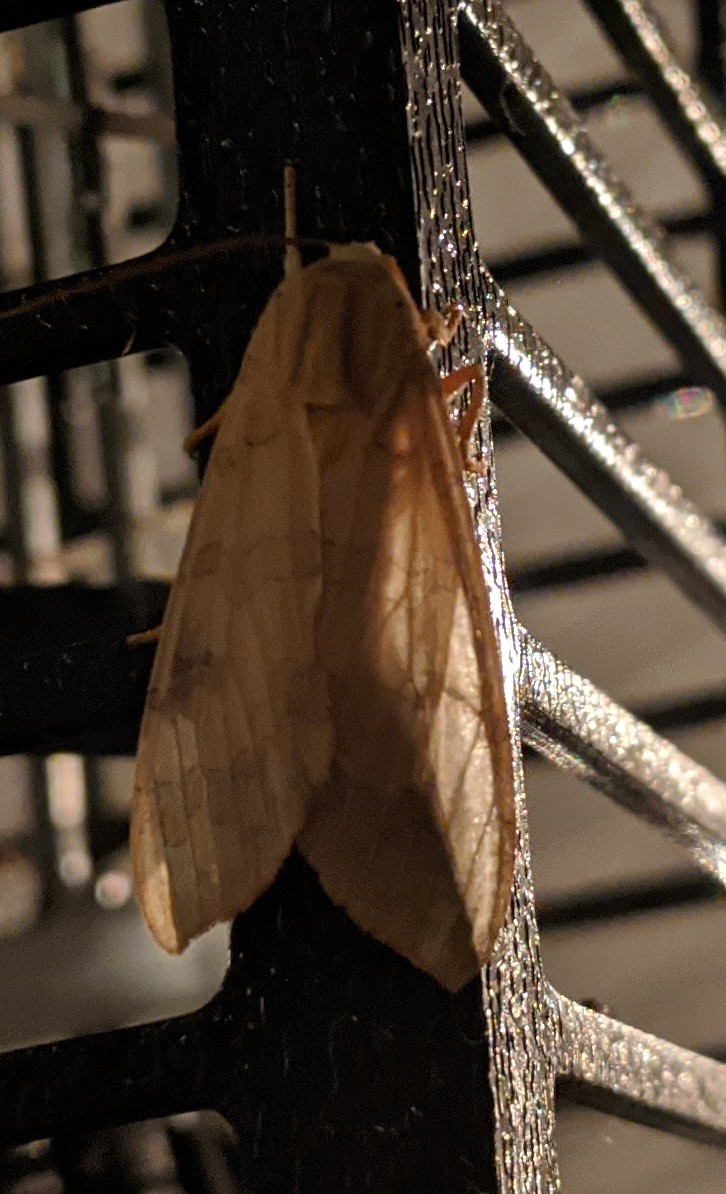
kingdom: Animalia
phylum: Arthropoda
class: Insecta
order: Lepidoptera
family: Erebidae
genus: Halysidota
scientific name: Halysidota
